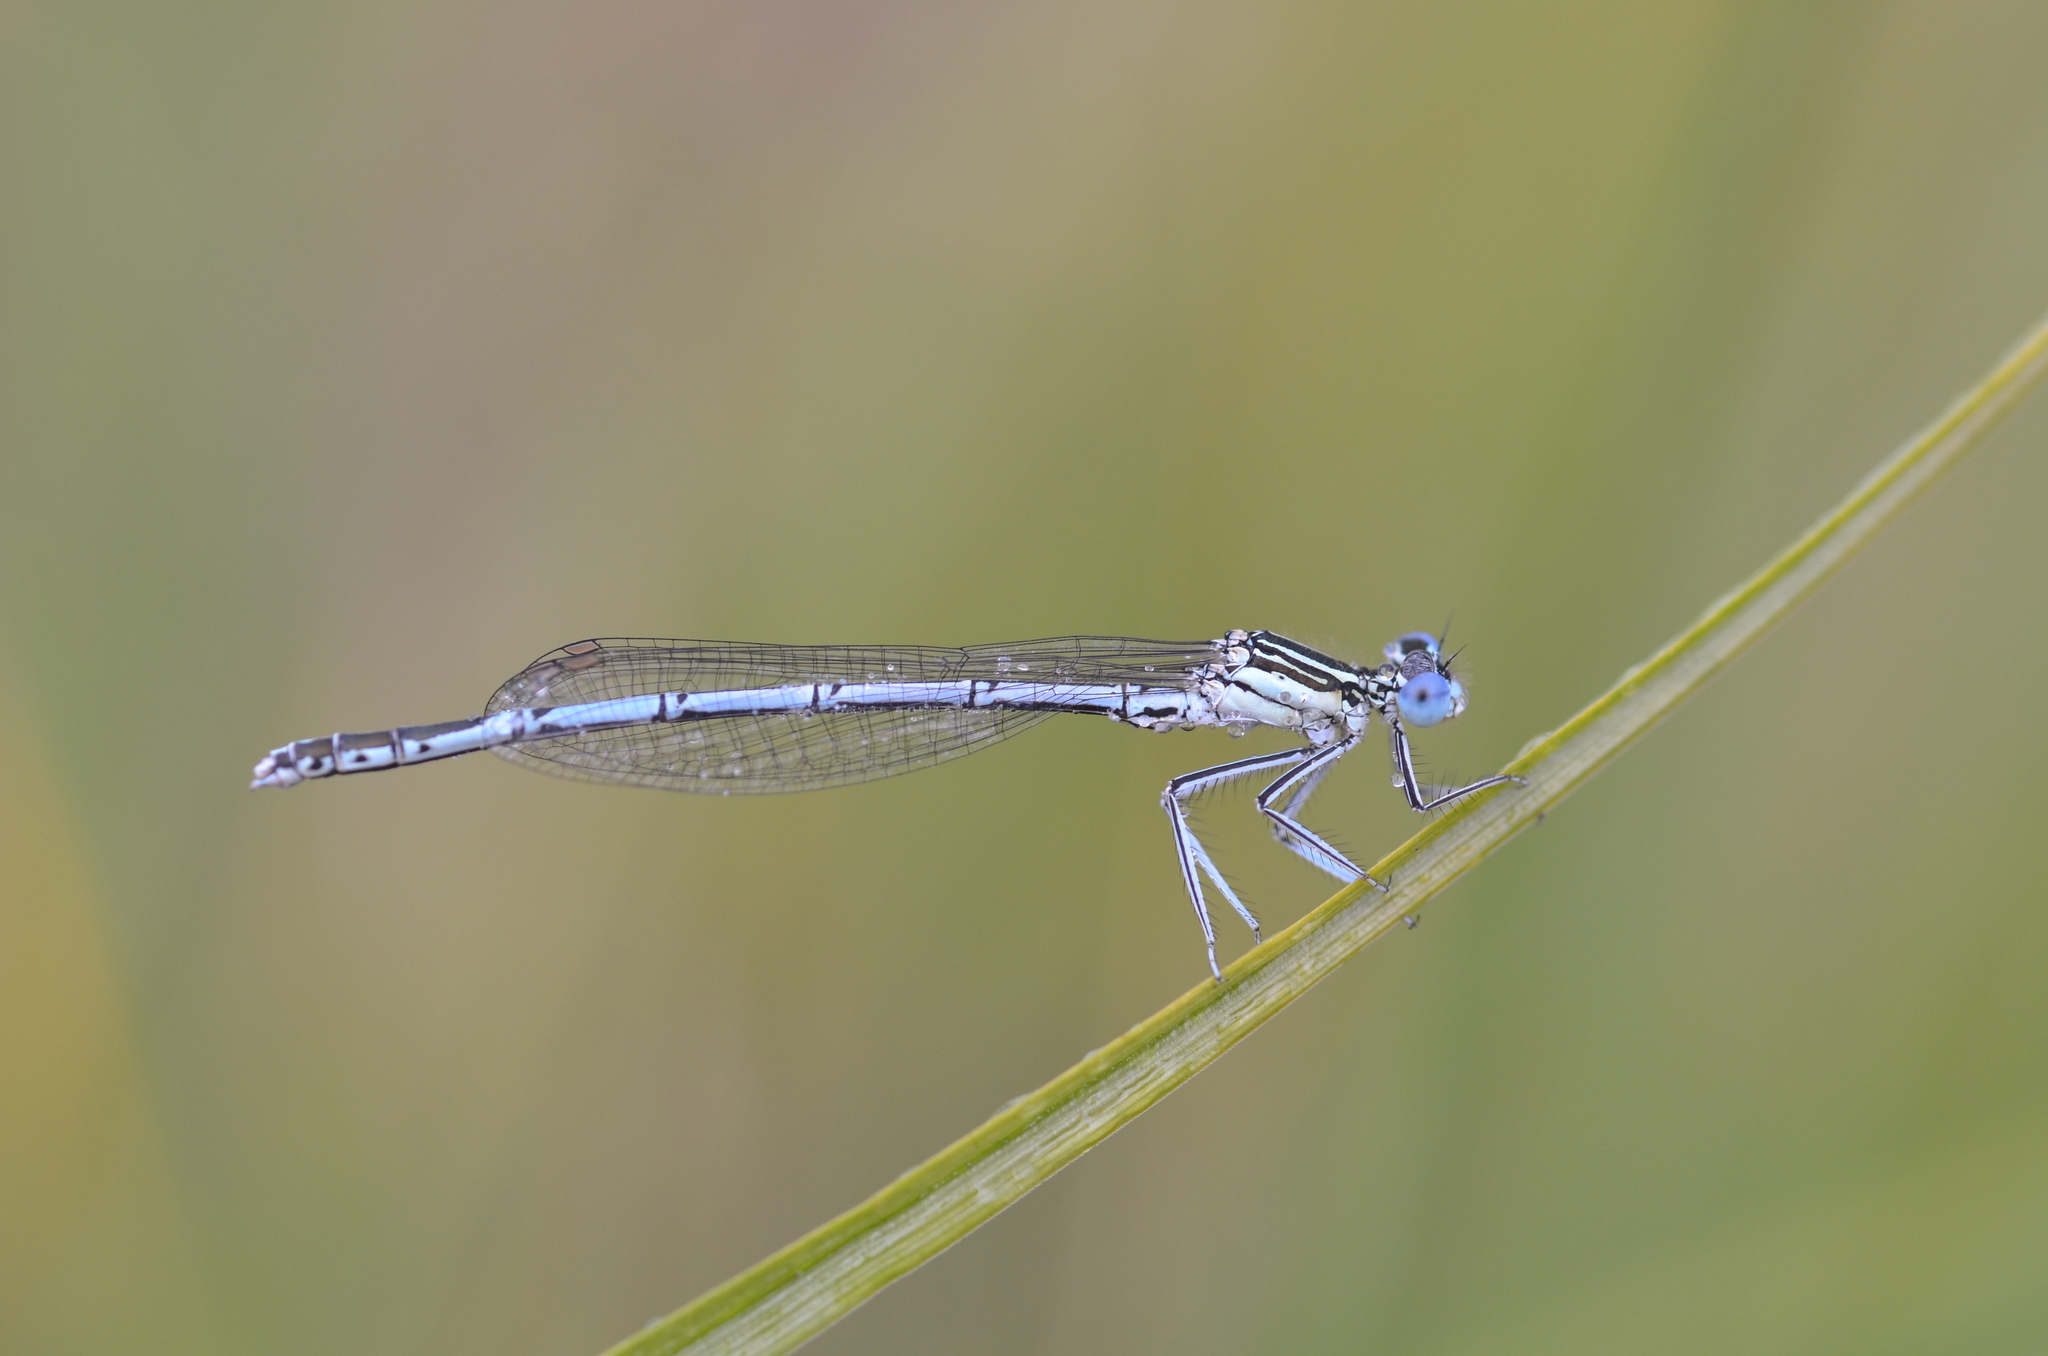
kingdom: Animalia
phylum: Arthropoda
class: Insecta
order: Odonata
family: Platycnemididae
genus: Platycnemis
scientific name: Platycnemis pennipes
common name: White-legged damselfly
